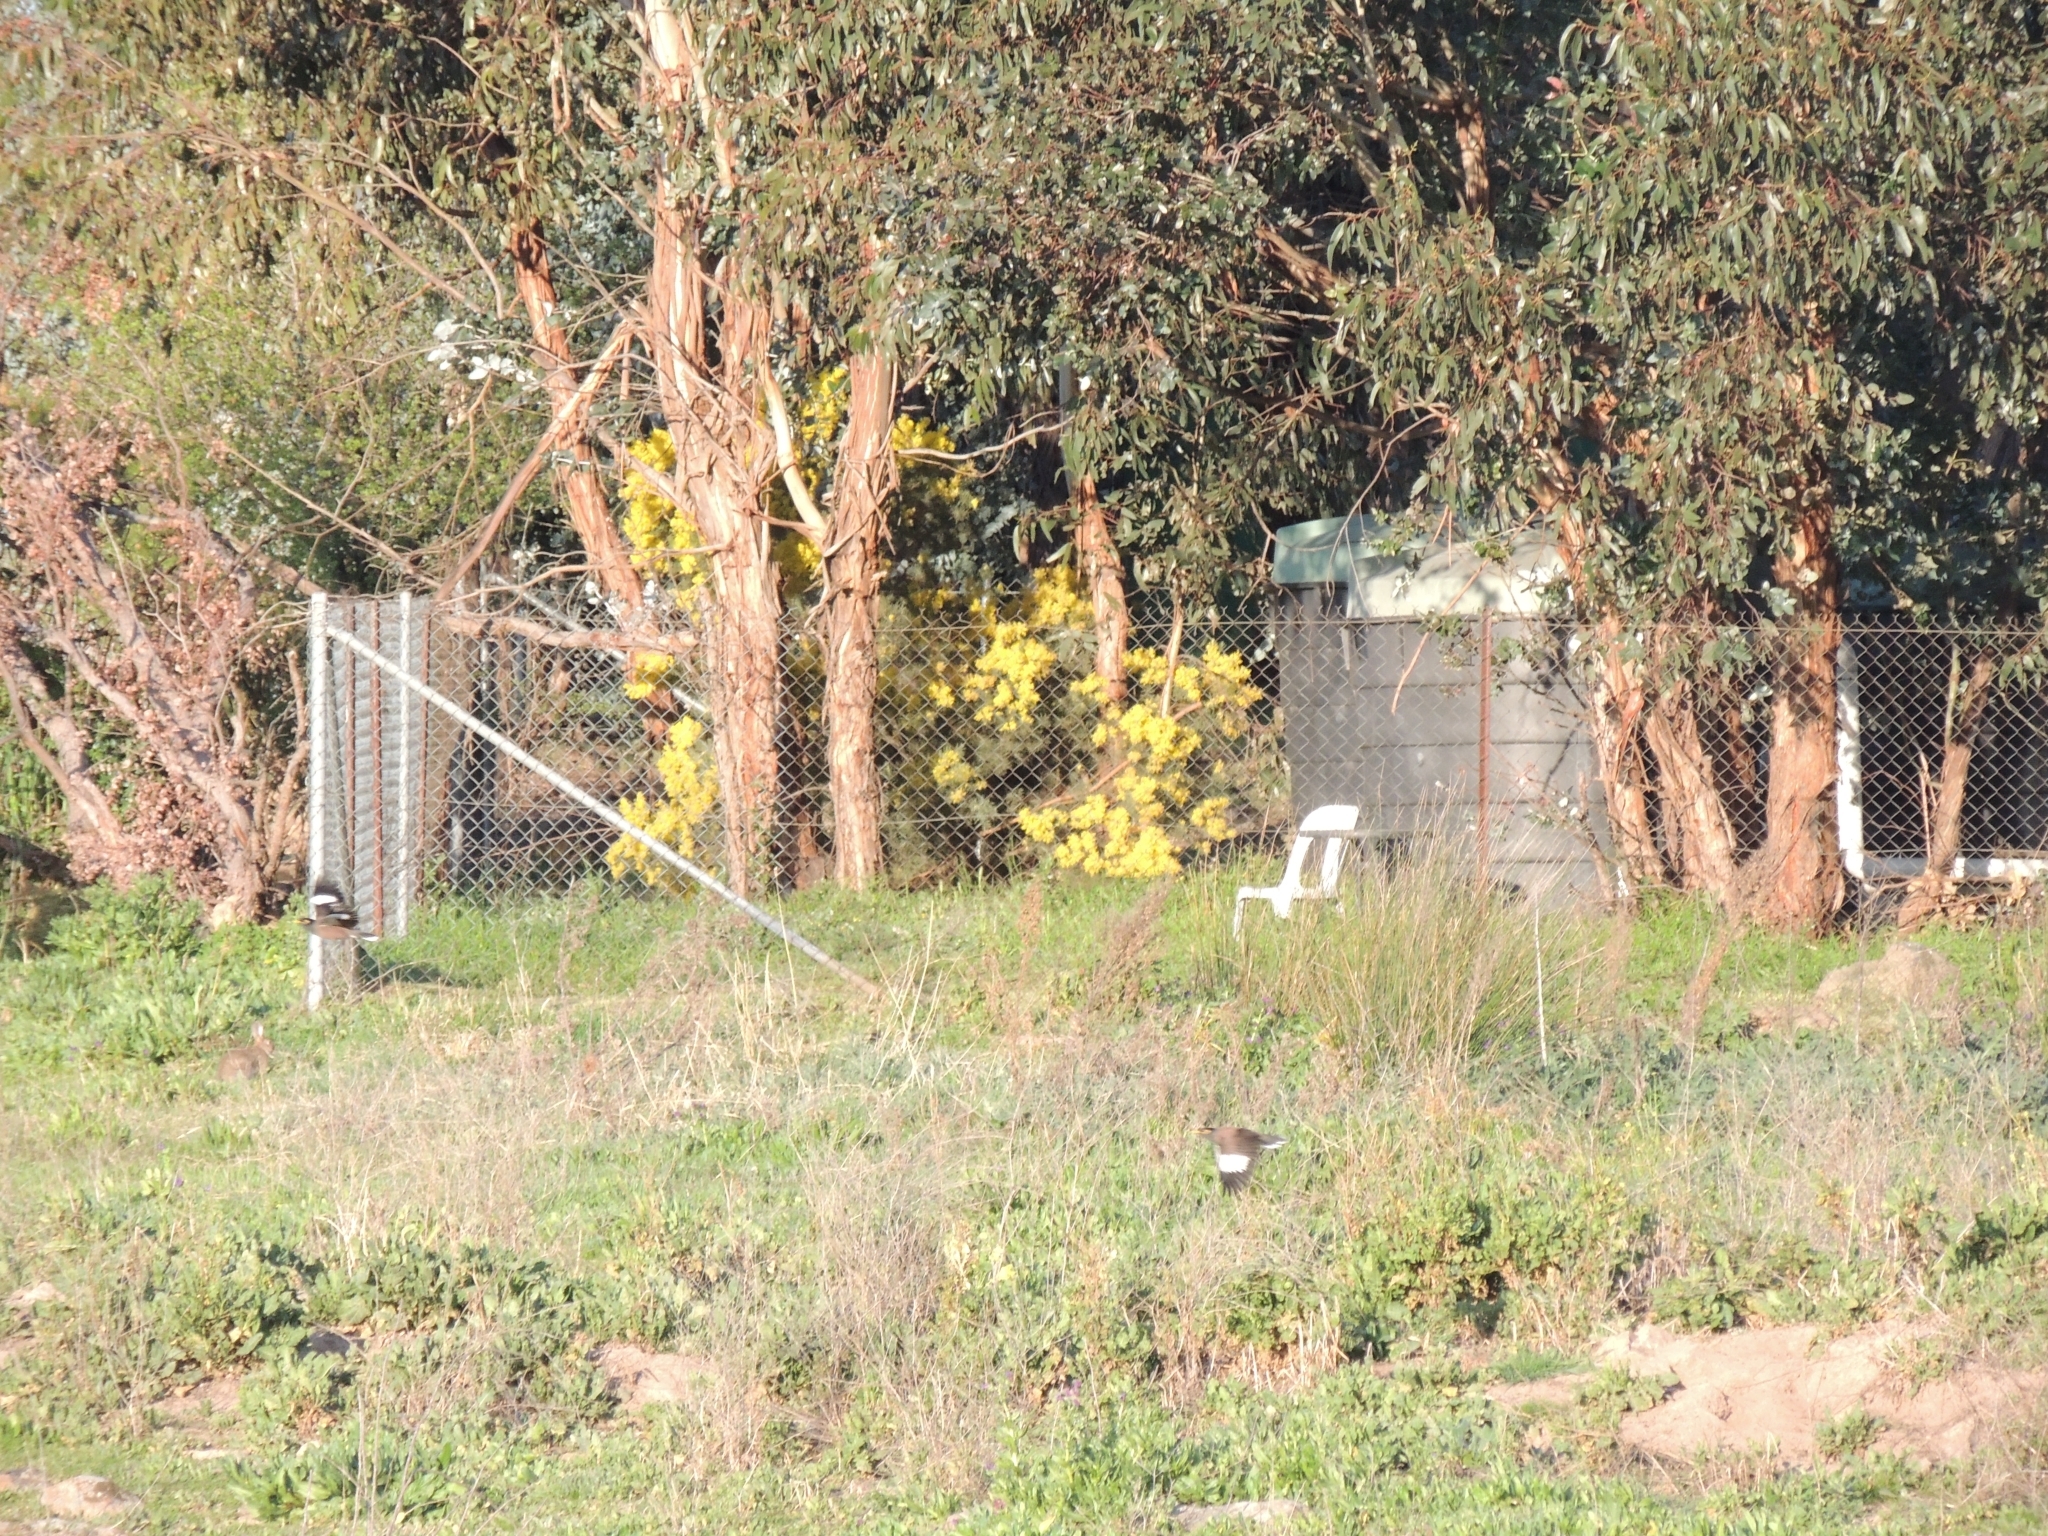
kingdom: Animalia
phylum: Chordata
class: Aves
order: Passeriformes
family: Sturnidae
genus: Acridotheres
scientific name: Acridotheres tristis
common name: Common myna
